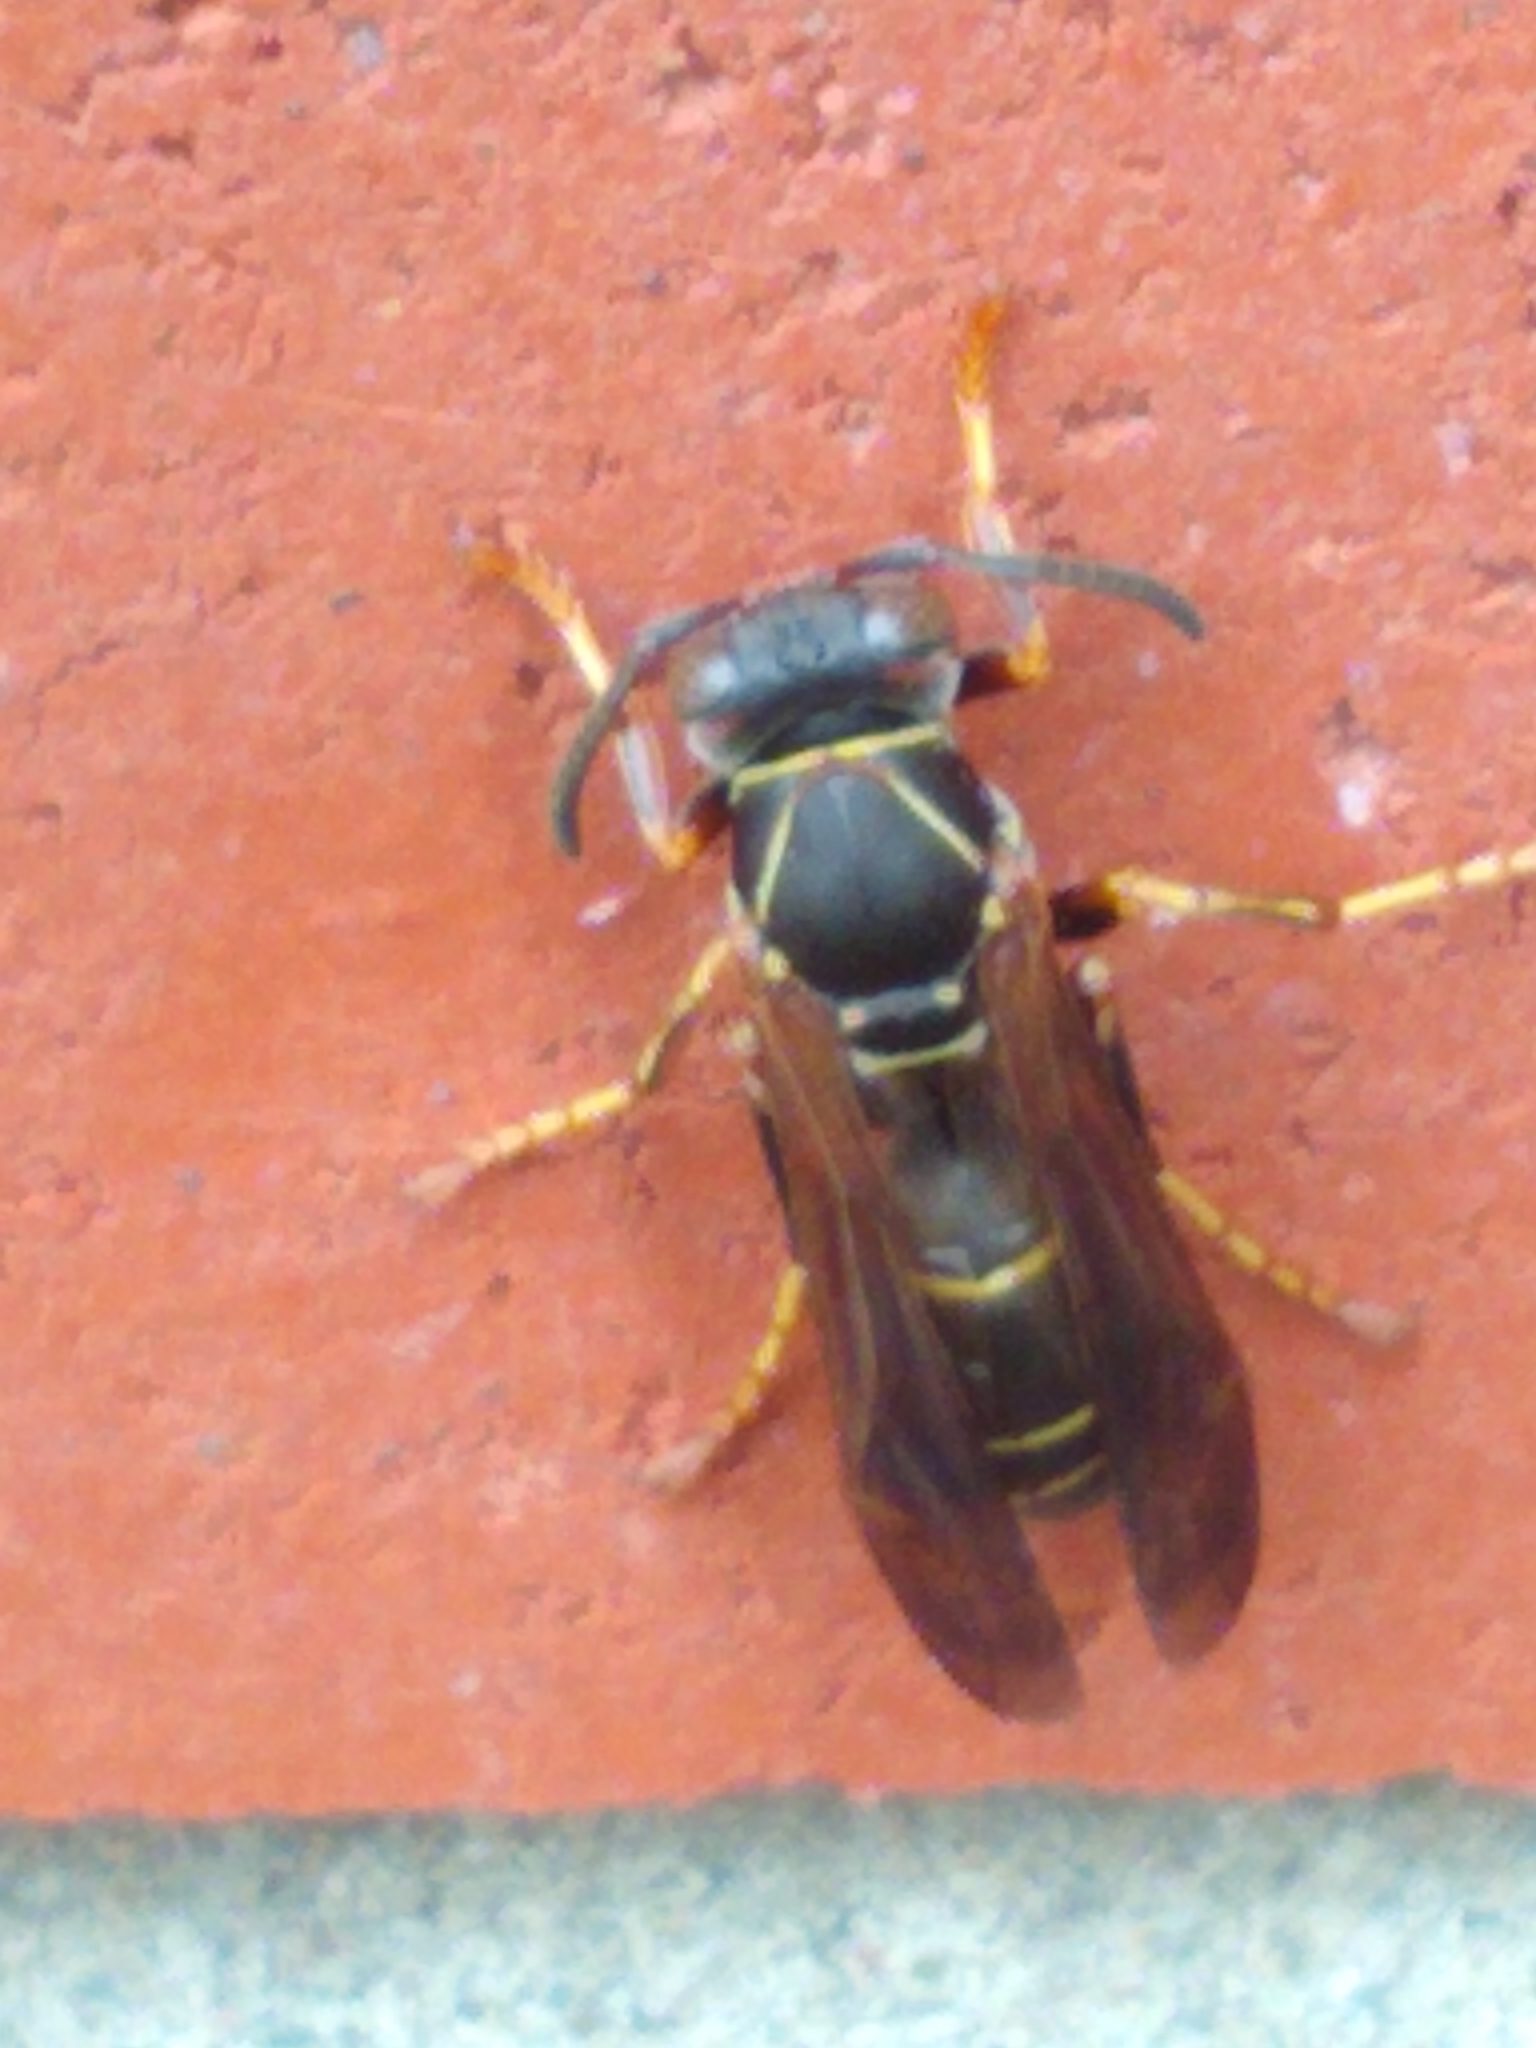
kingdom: Animalia
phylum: Arthropoda
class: Insecta
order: Hymenoptera
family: Eumenidae
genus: Polistes
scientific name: Polistes fuscatus
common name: Dark paper wasp
